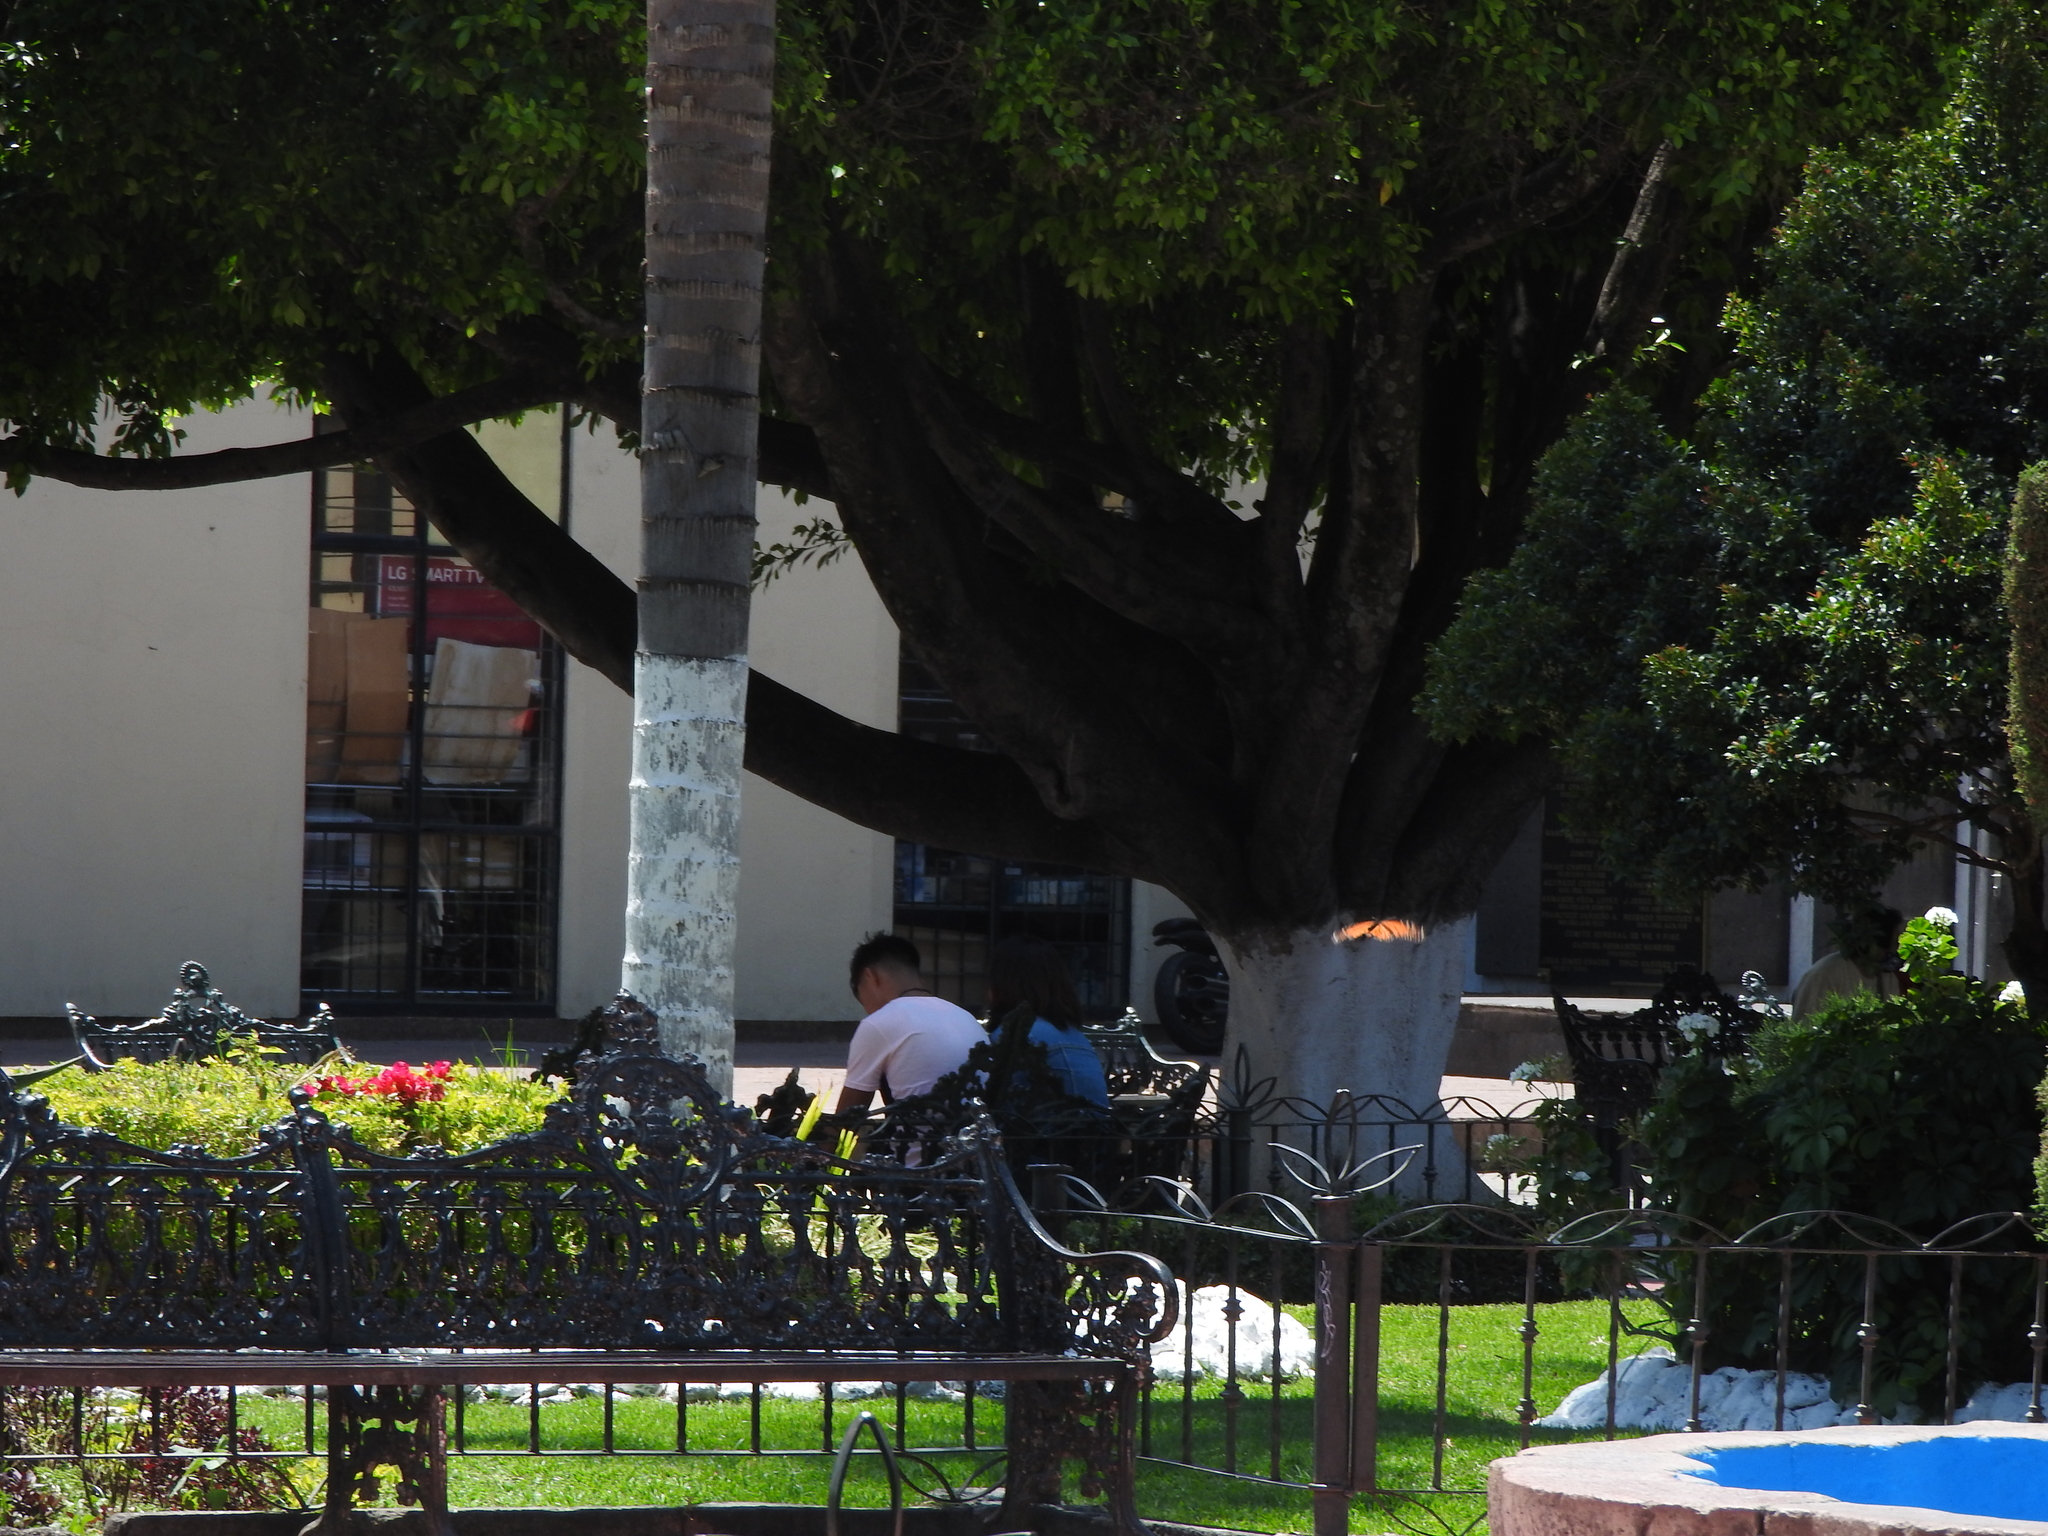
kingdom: Animalia
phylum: Arthropoda
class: Insecta
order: Lepidoptera
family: Nymphalidae
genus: Danaus
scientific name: Danaus plexippus
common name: Monarch
